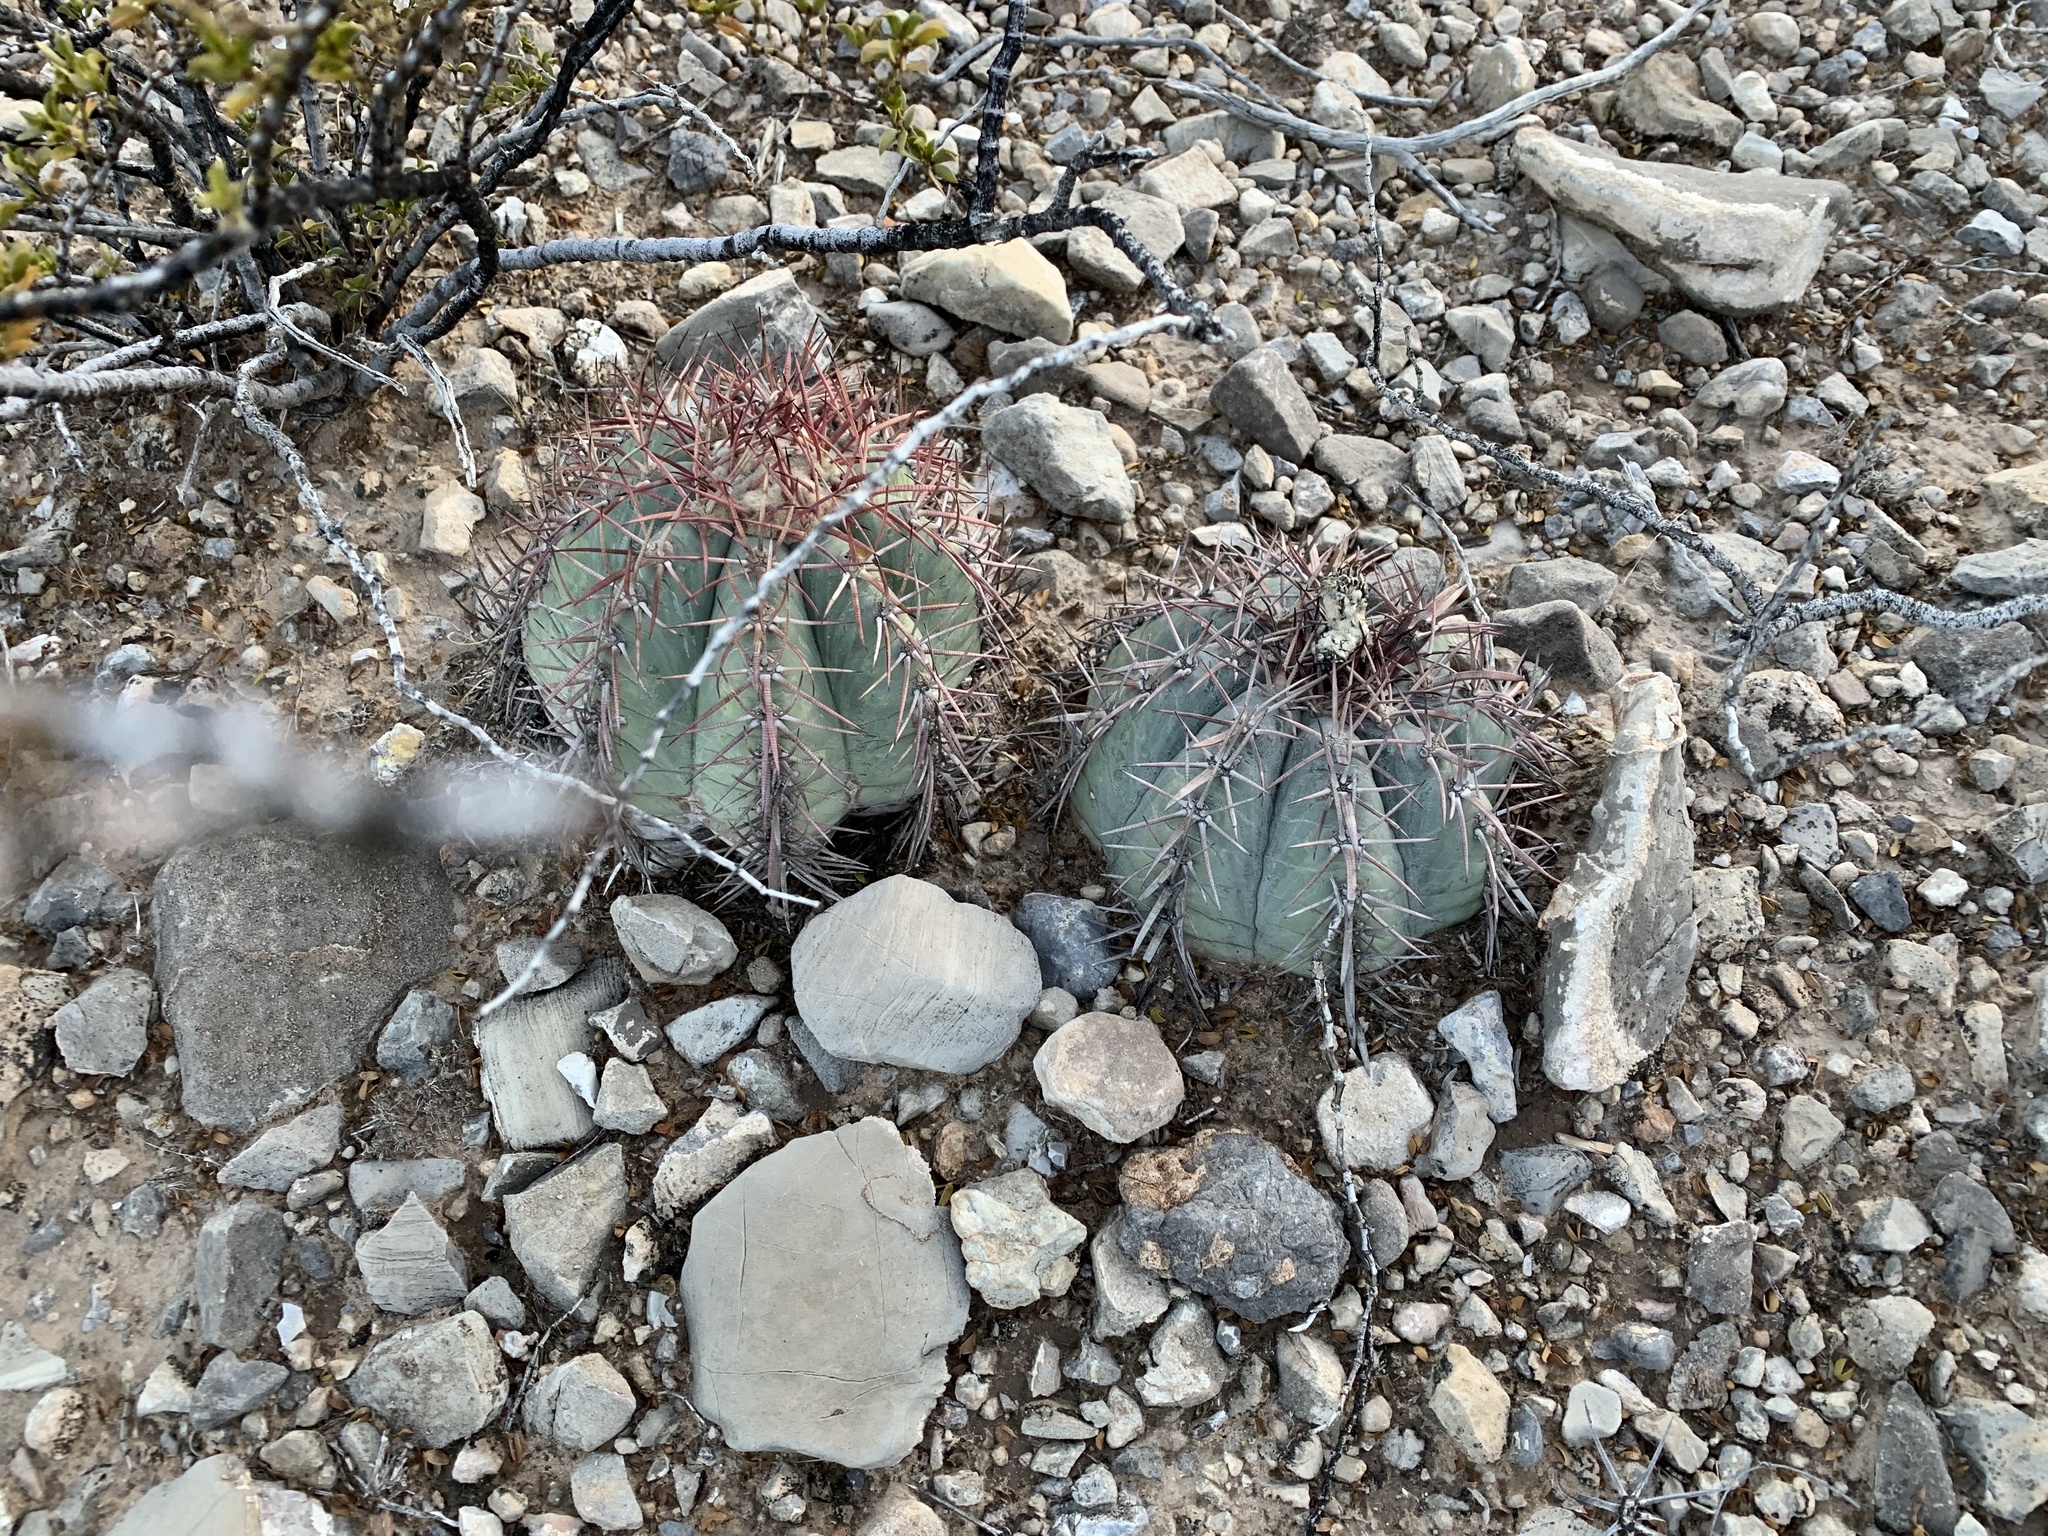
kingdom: Plantae
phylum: Tracheophyta
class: Magnoliopsida
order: Caryophyllales
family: Cactaceae
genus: Echinocactus
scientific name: Echinocactus horizonthalonius
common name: Devilshead
